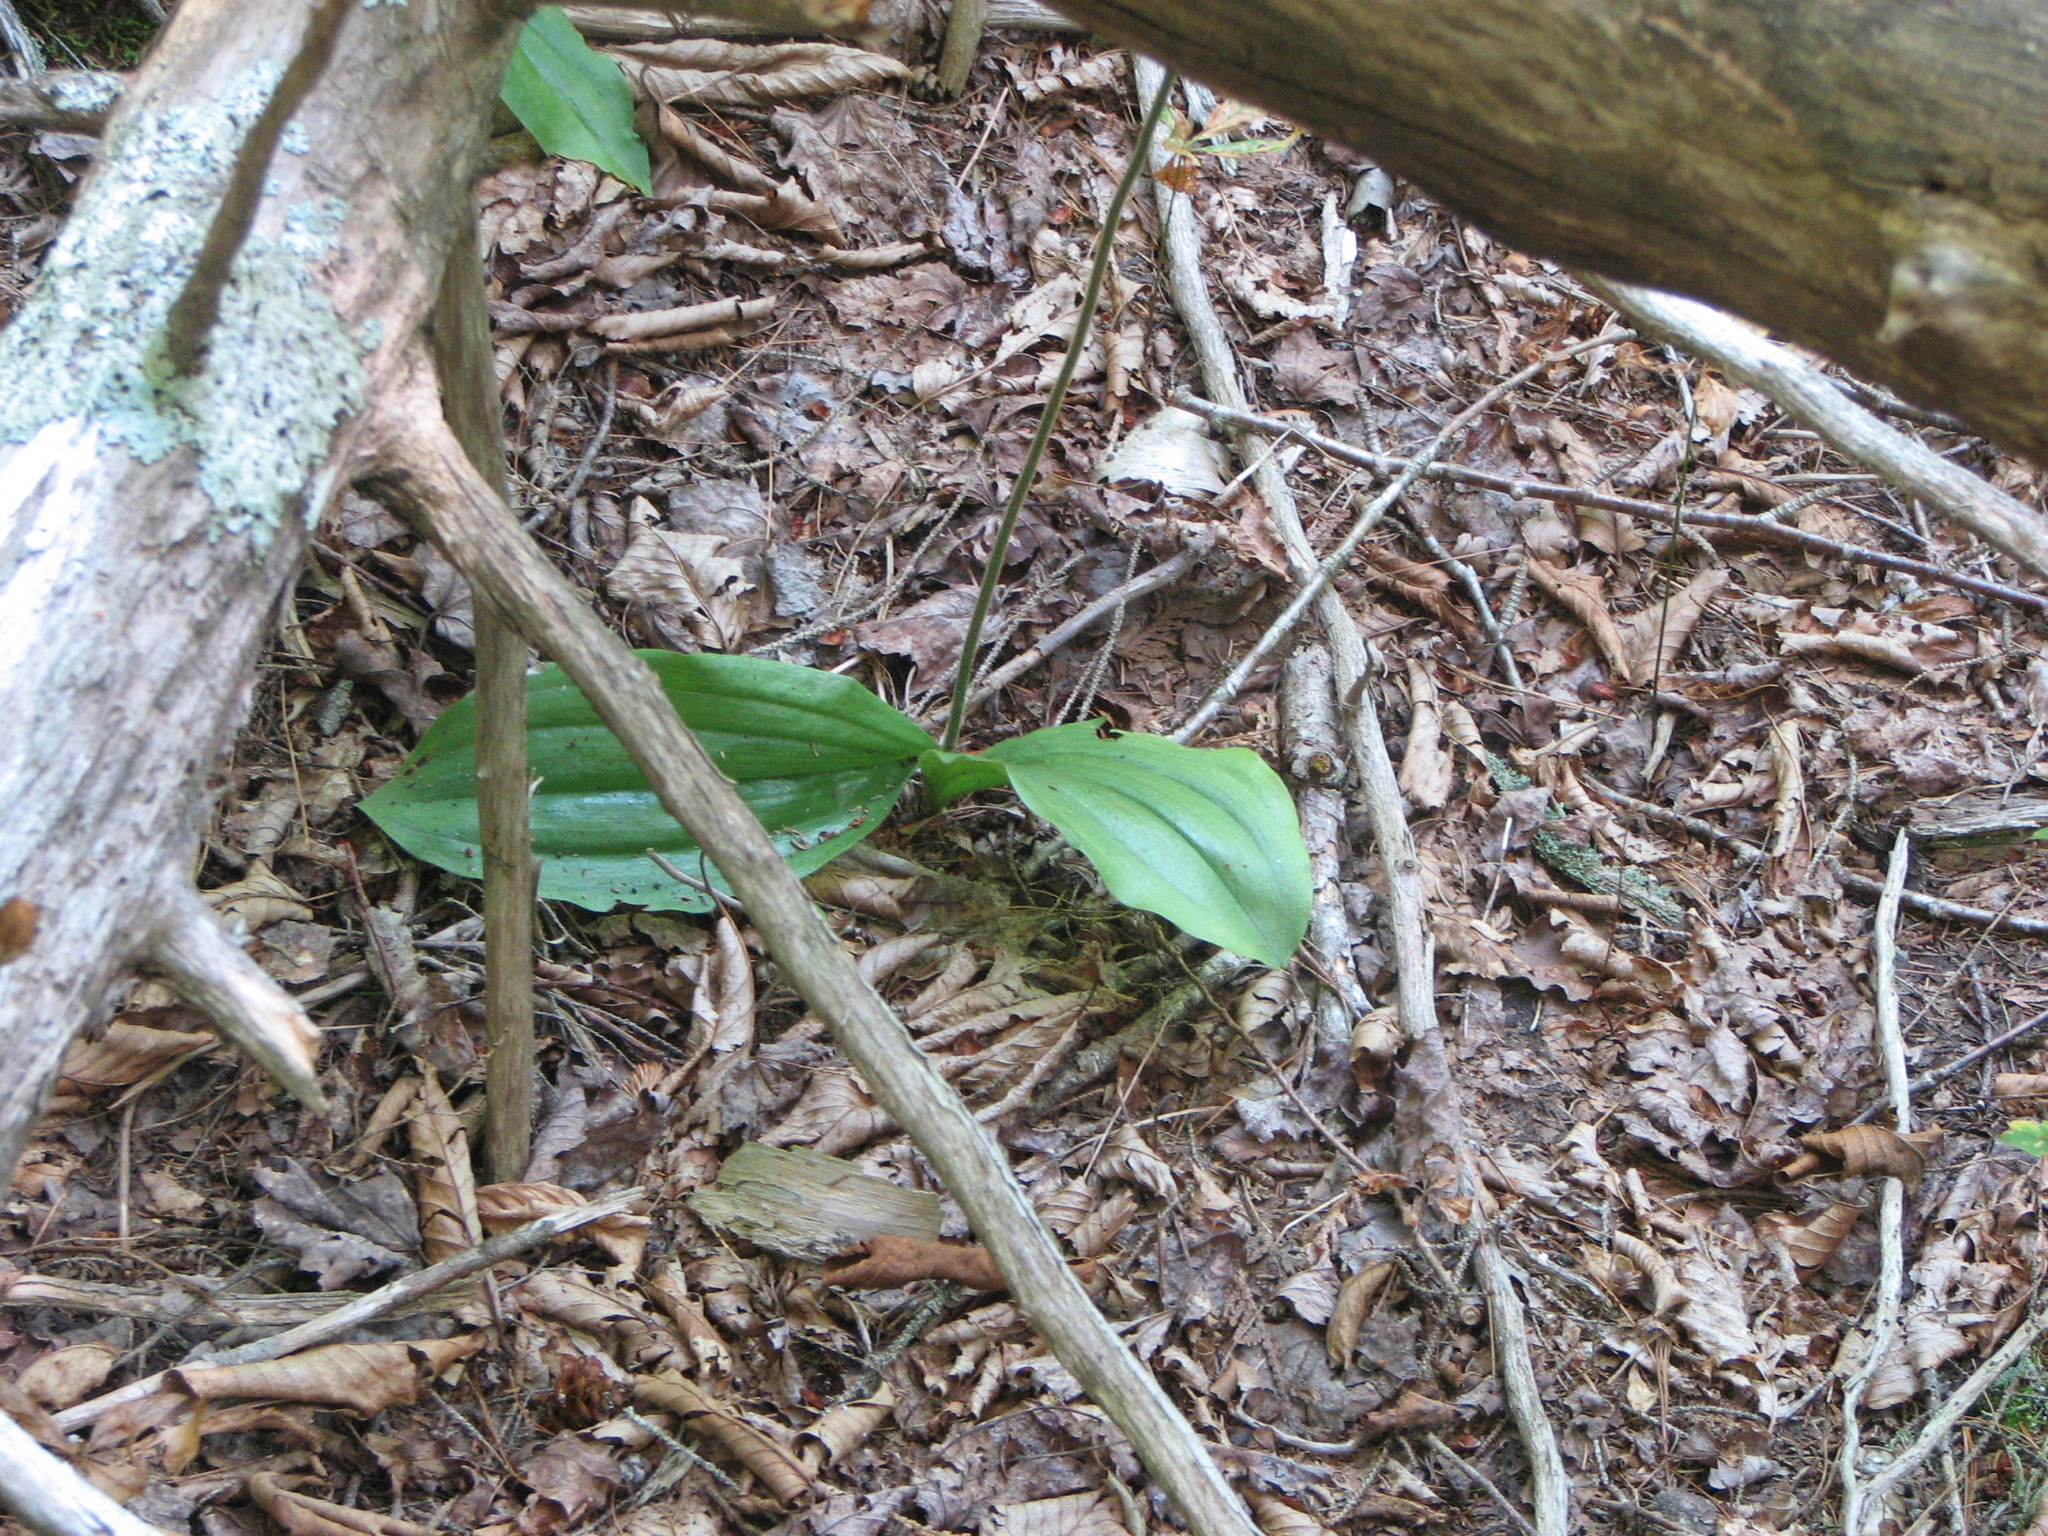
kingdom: Plantae
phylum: Tracheophyta
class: Liliopsida
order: Asparagales
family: Orchidaceae
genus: Cypripedium
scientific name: Cypripedium acaule
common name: Pink lady's-slipper
